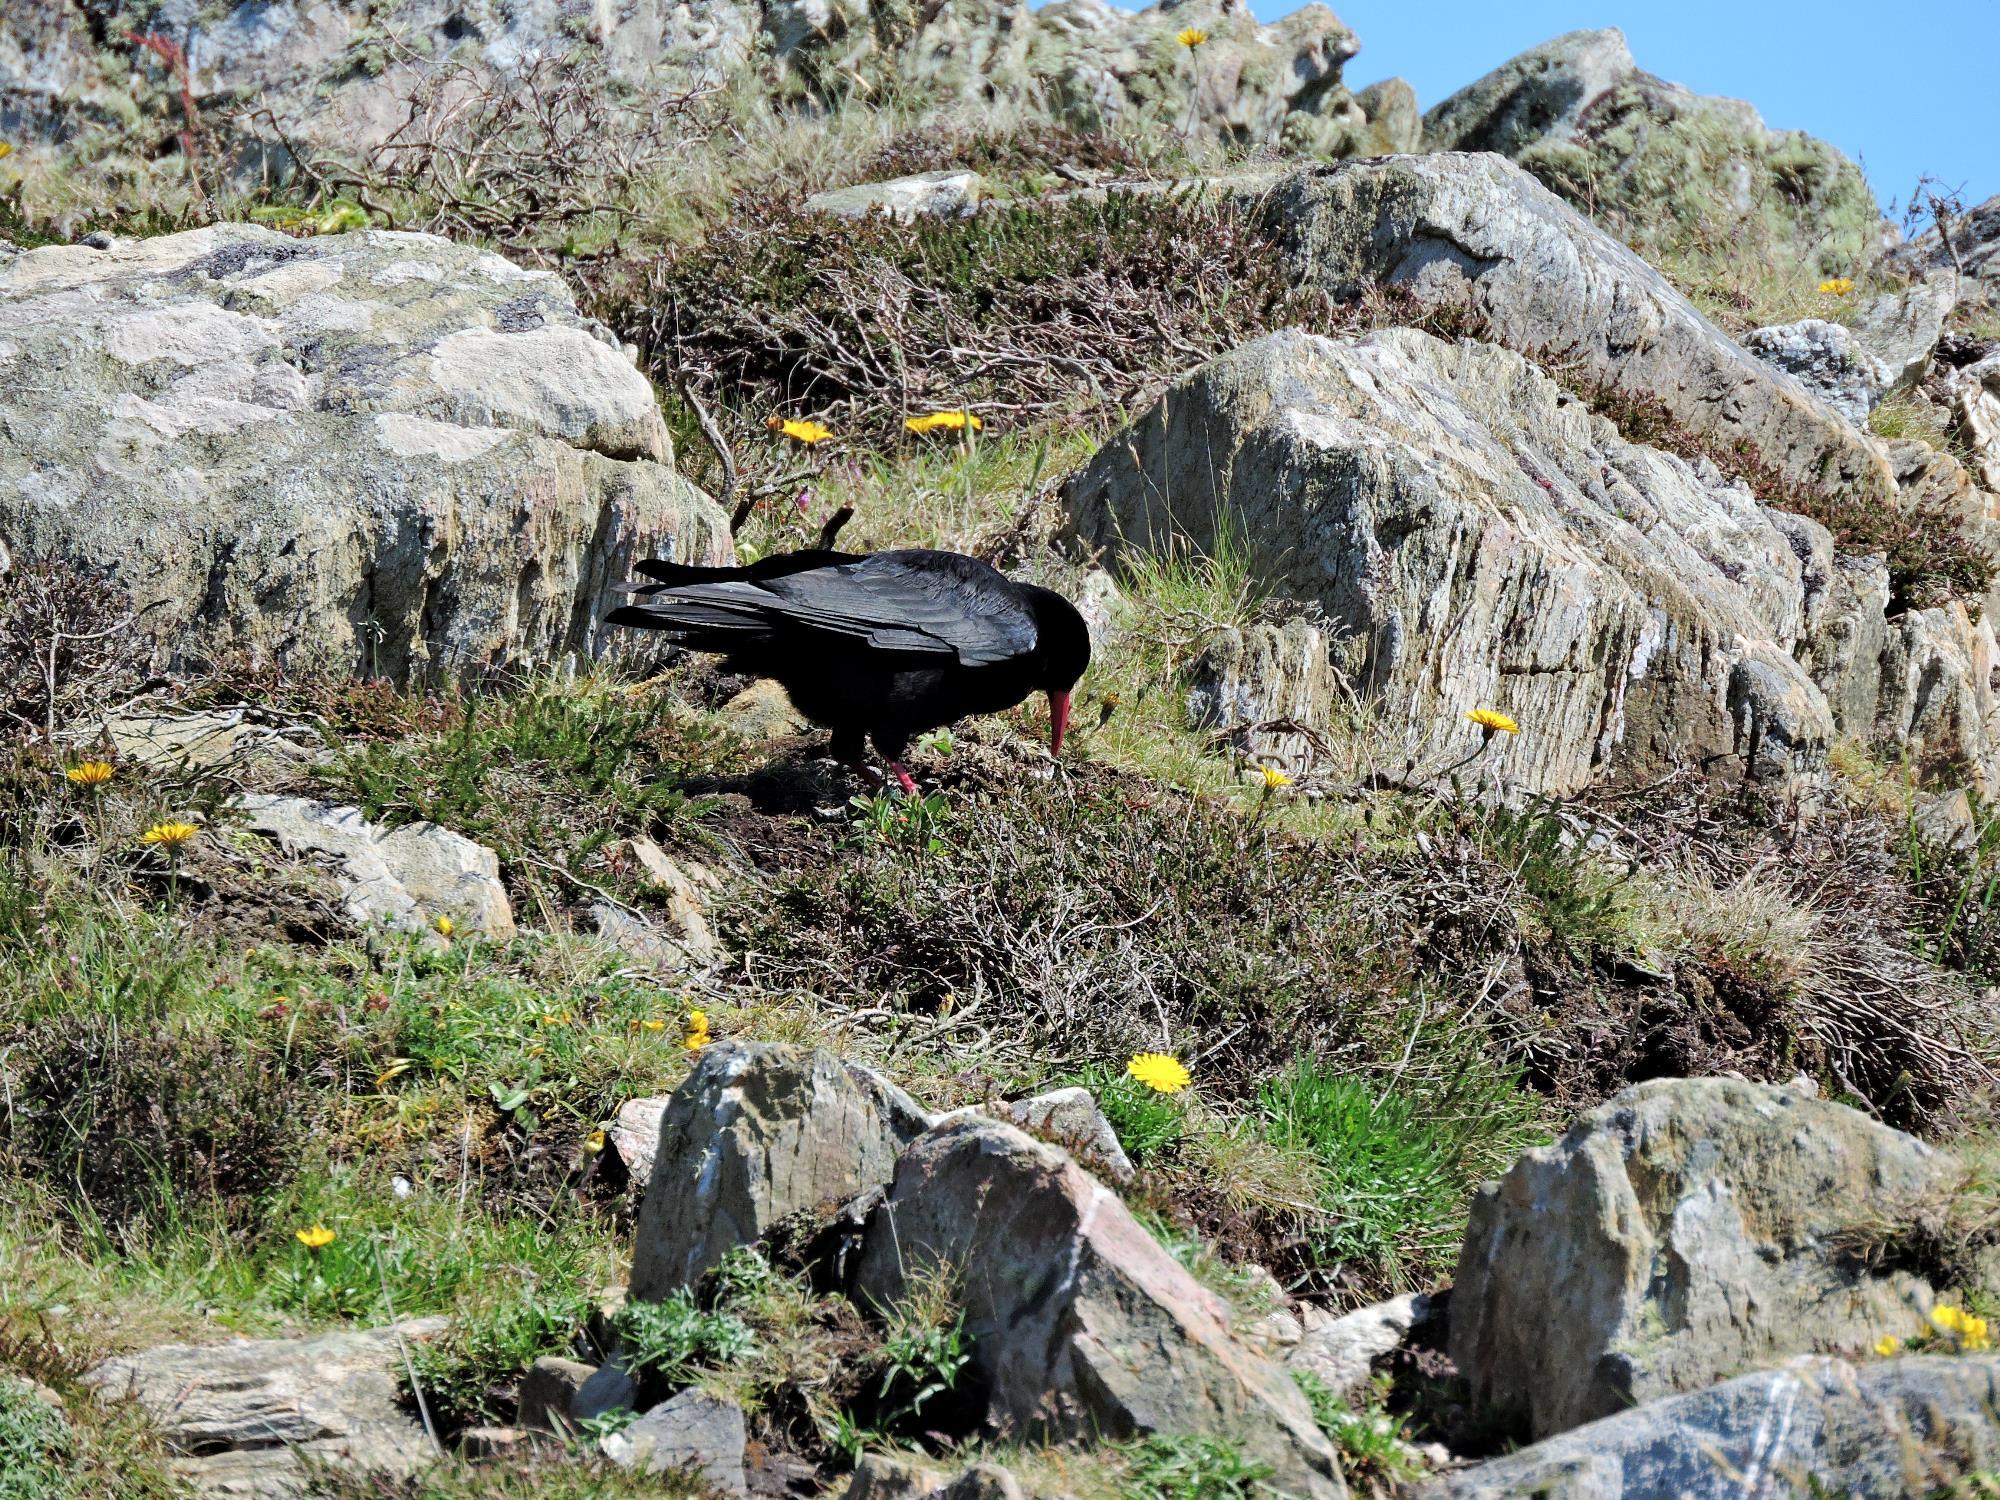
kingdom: Animalia
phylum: Chordata
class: Aves
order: Passeriformes
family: Corvidae
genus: Pyrrhocorax
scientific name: Pyrrhocorax pyrrhocorax
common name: Red-billed chough
